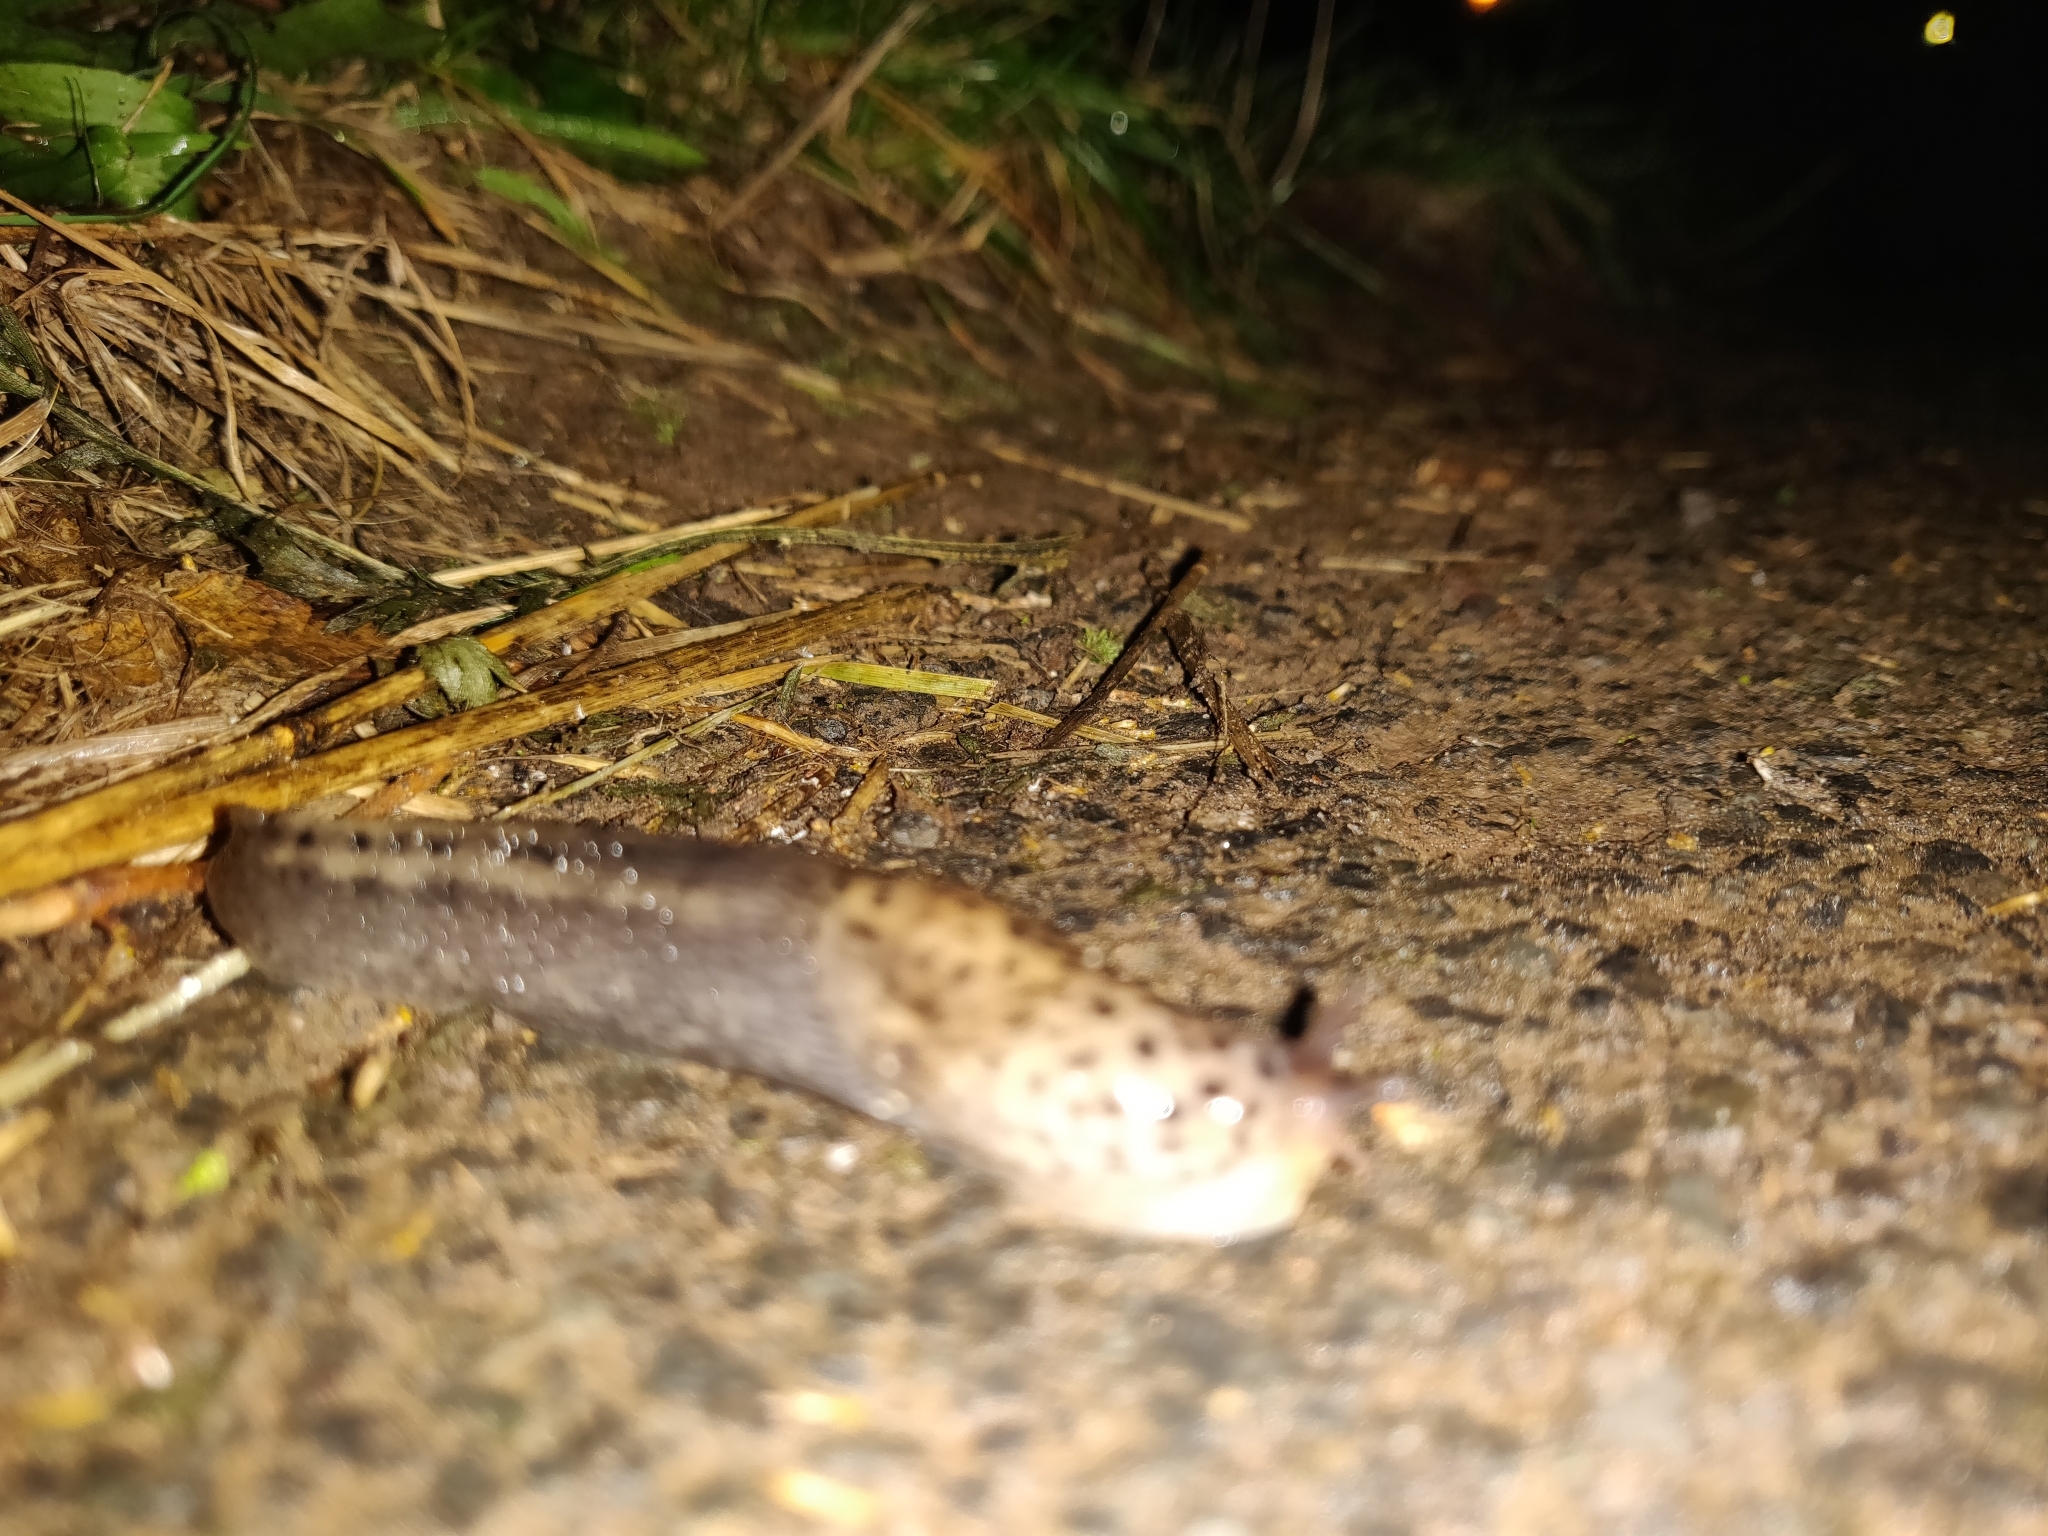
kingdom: Animalia
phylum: Mollusca
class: Gastropoda
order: Stylommatophora
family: Limacidae
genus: Limax
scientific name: Limax maximus
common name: Great grey slug
